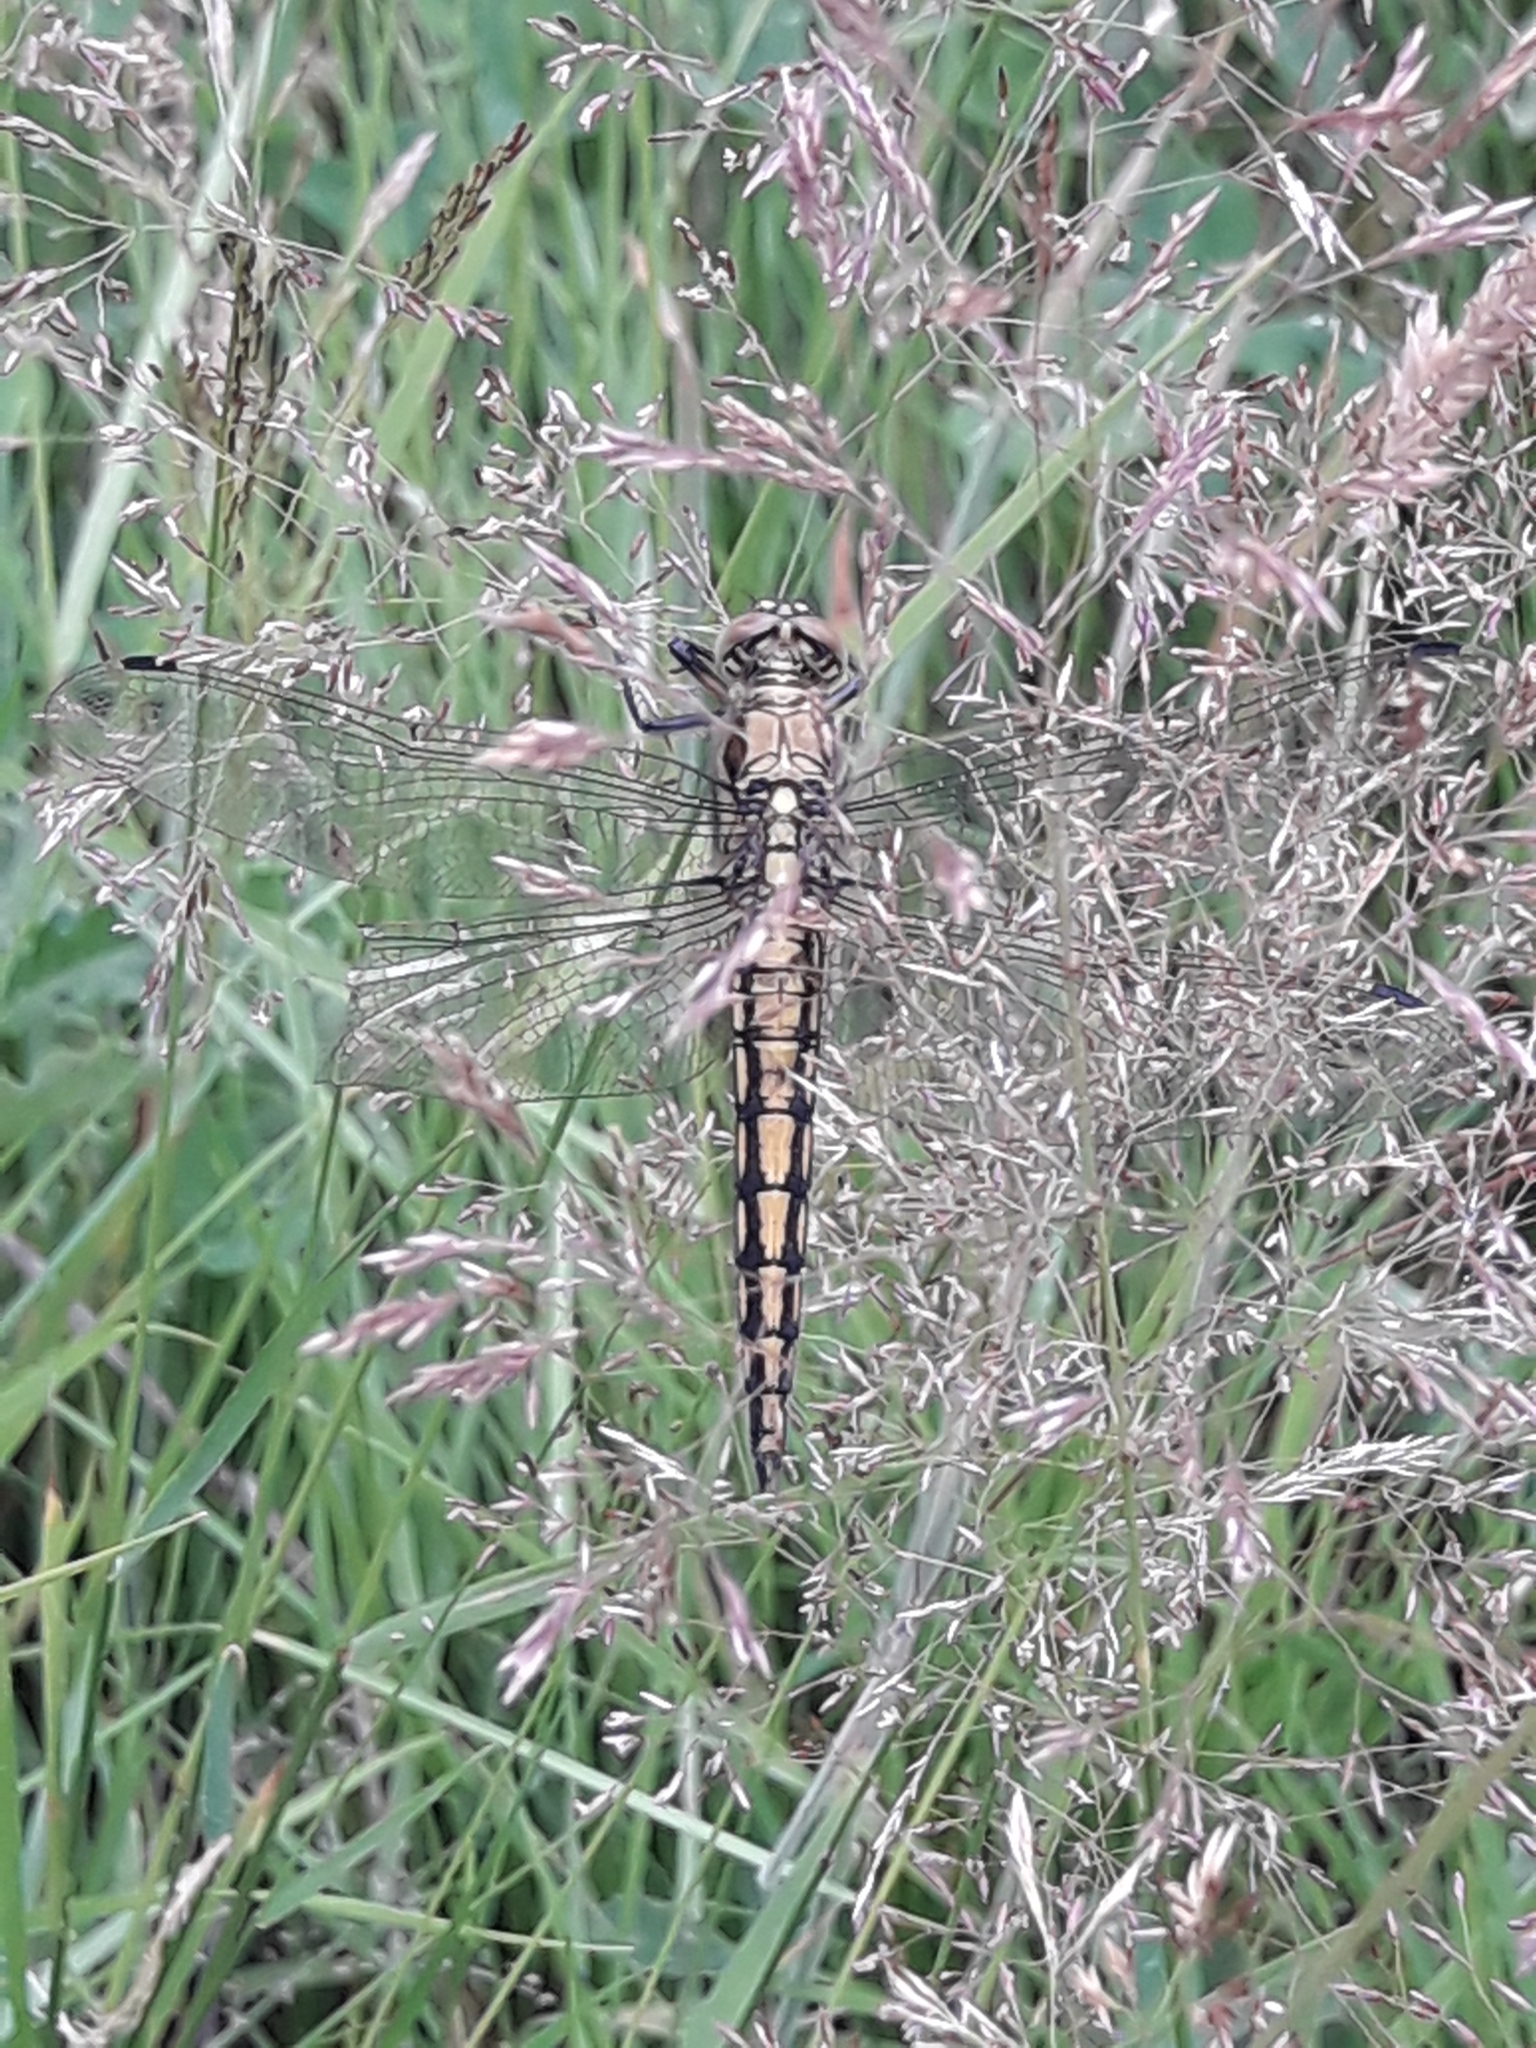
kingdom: Animalia
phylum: Arthropoda
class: Insecta
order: Odonata
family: Libellulidae
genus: Orthetrum
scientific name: Orthetrum cancellatum
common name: Black-tailed skimmer
